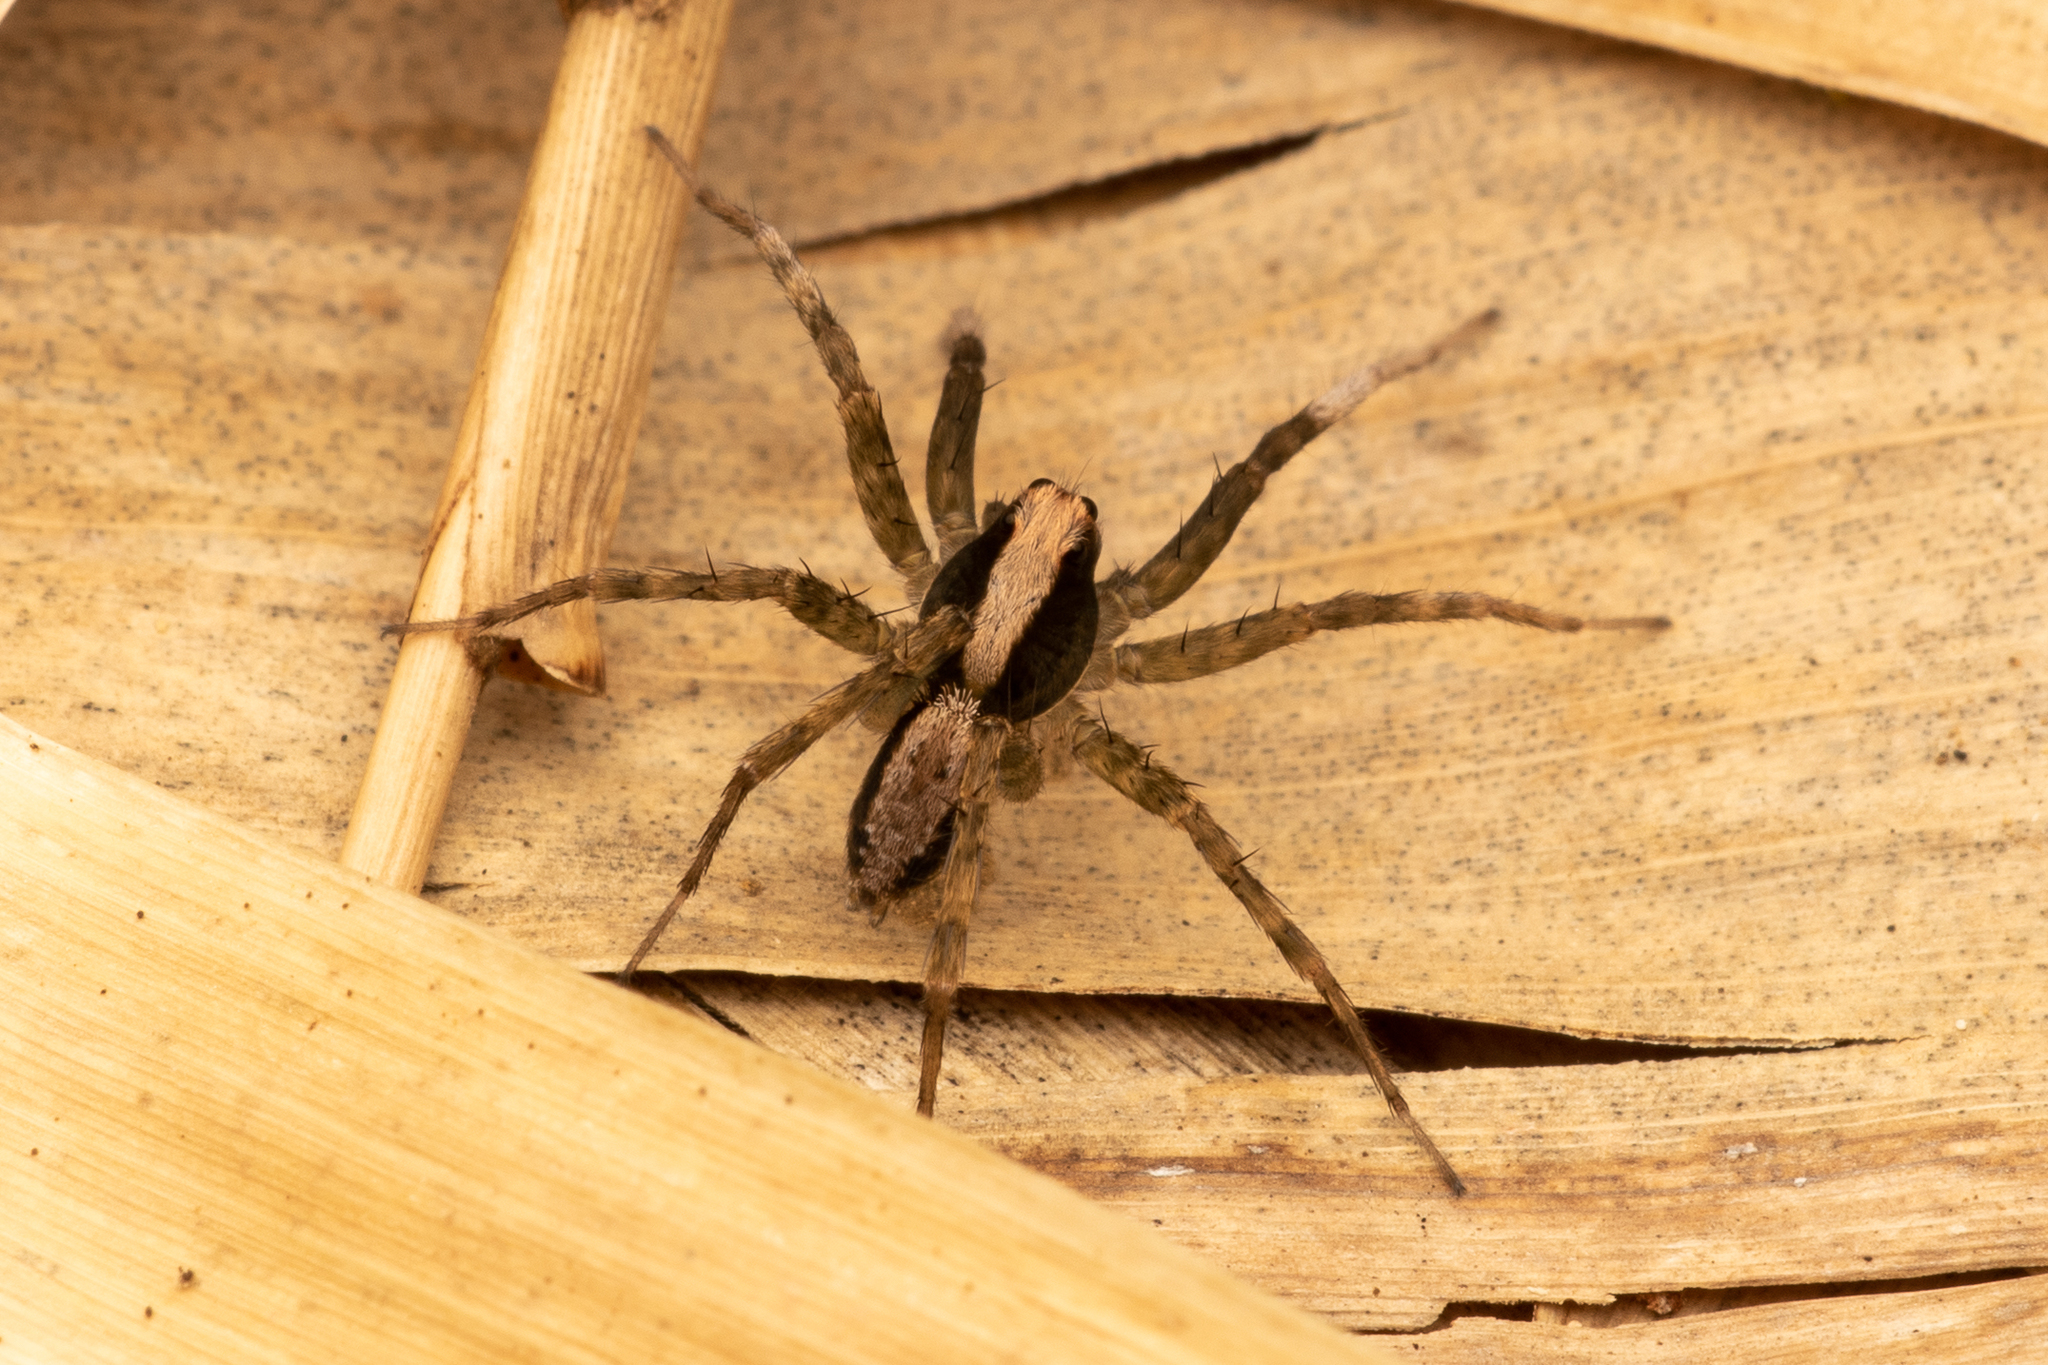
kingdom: Animalia
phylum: Arthropoda
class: Arachnida
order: Araneae
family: Lycosidae
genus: Schizocosa
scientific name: Schizocosa tristani
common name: Wolf spider
